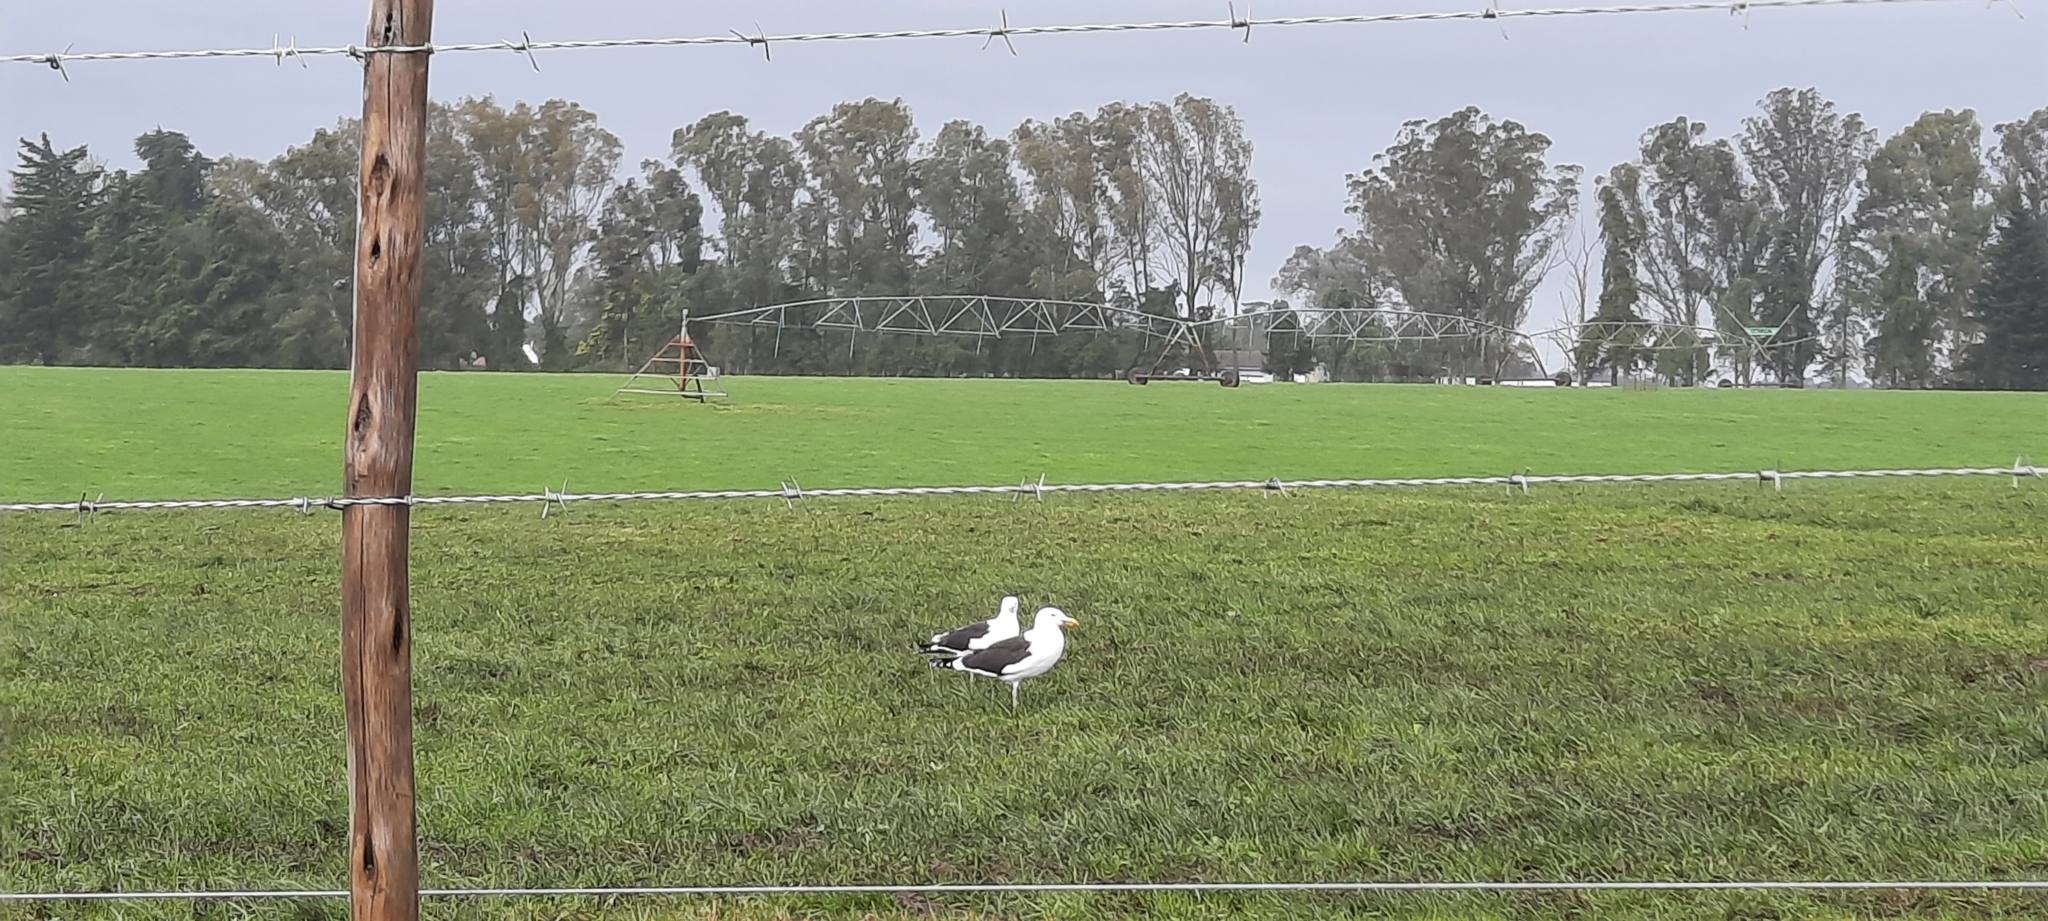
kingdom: Animalia
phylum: Chordata
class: Aves
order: Charadriiformes
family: Laridae
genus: Larus
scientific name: Larus dominicanus
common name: Kelp gull
